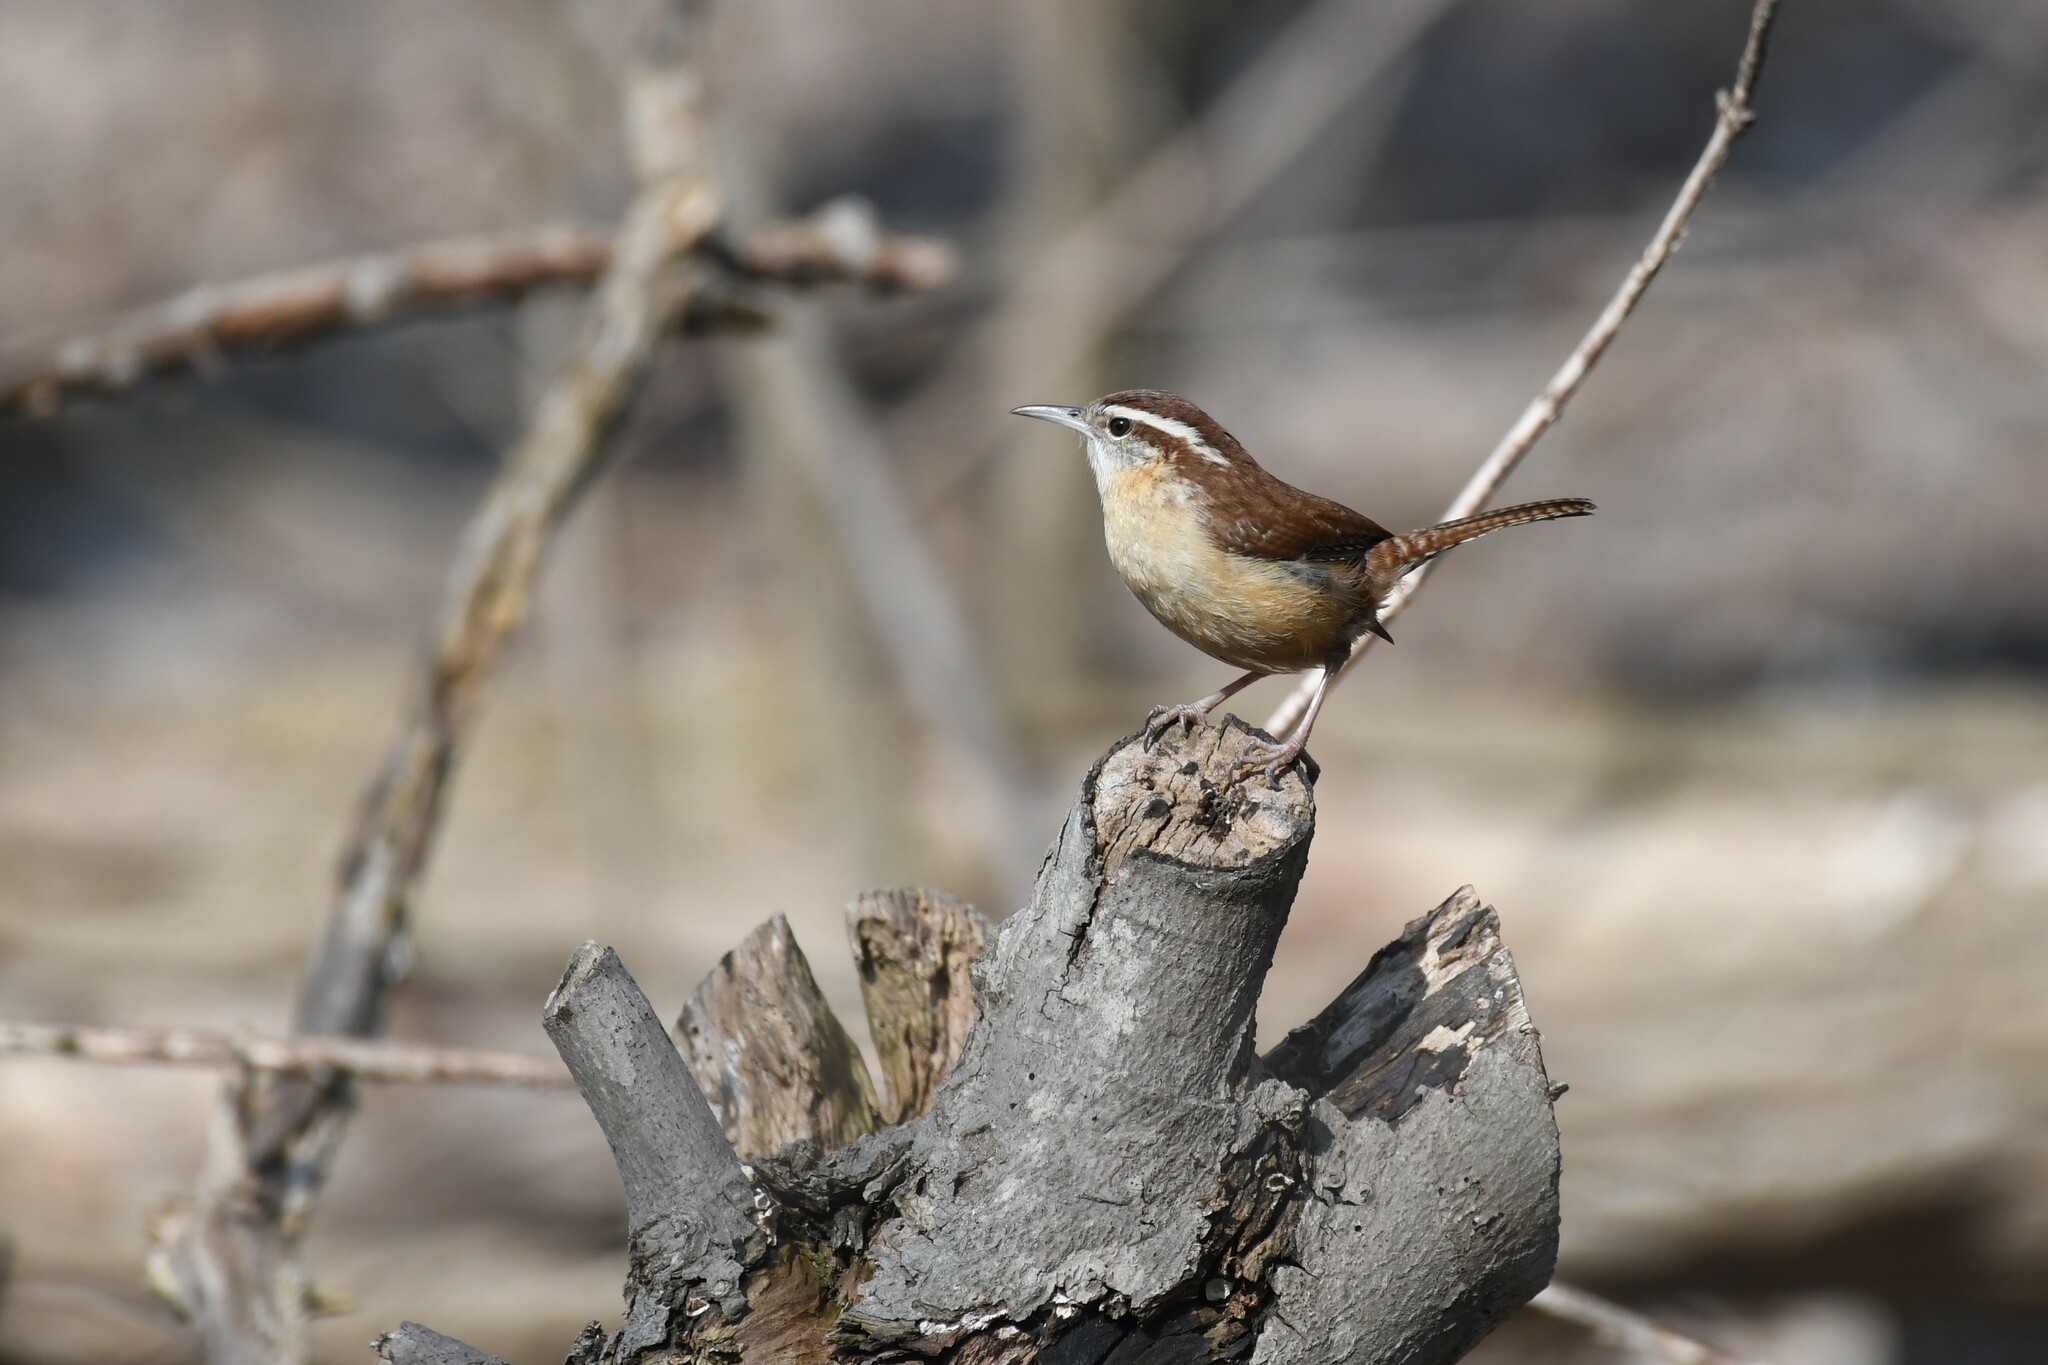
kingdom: Animalia
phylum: Chordata
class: Aves
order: Passeriformes
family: Troglodytidae
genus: Thryothorus
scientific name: Thryothorus ludovicianus
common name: Carolina wren
